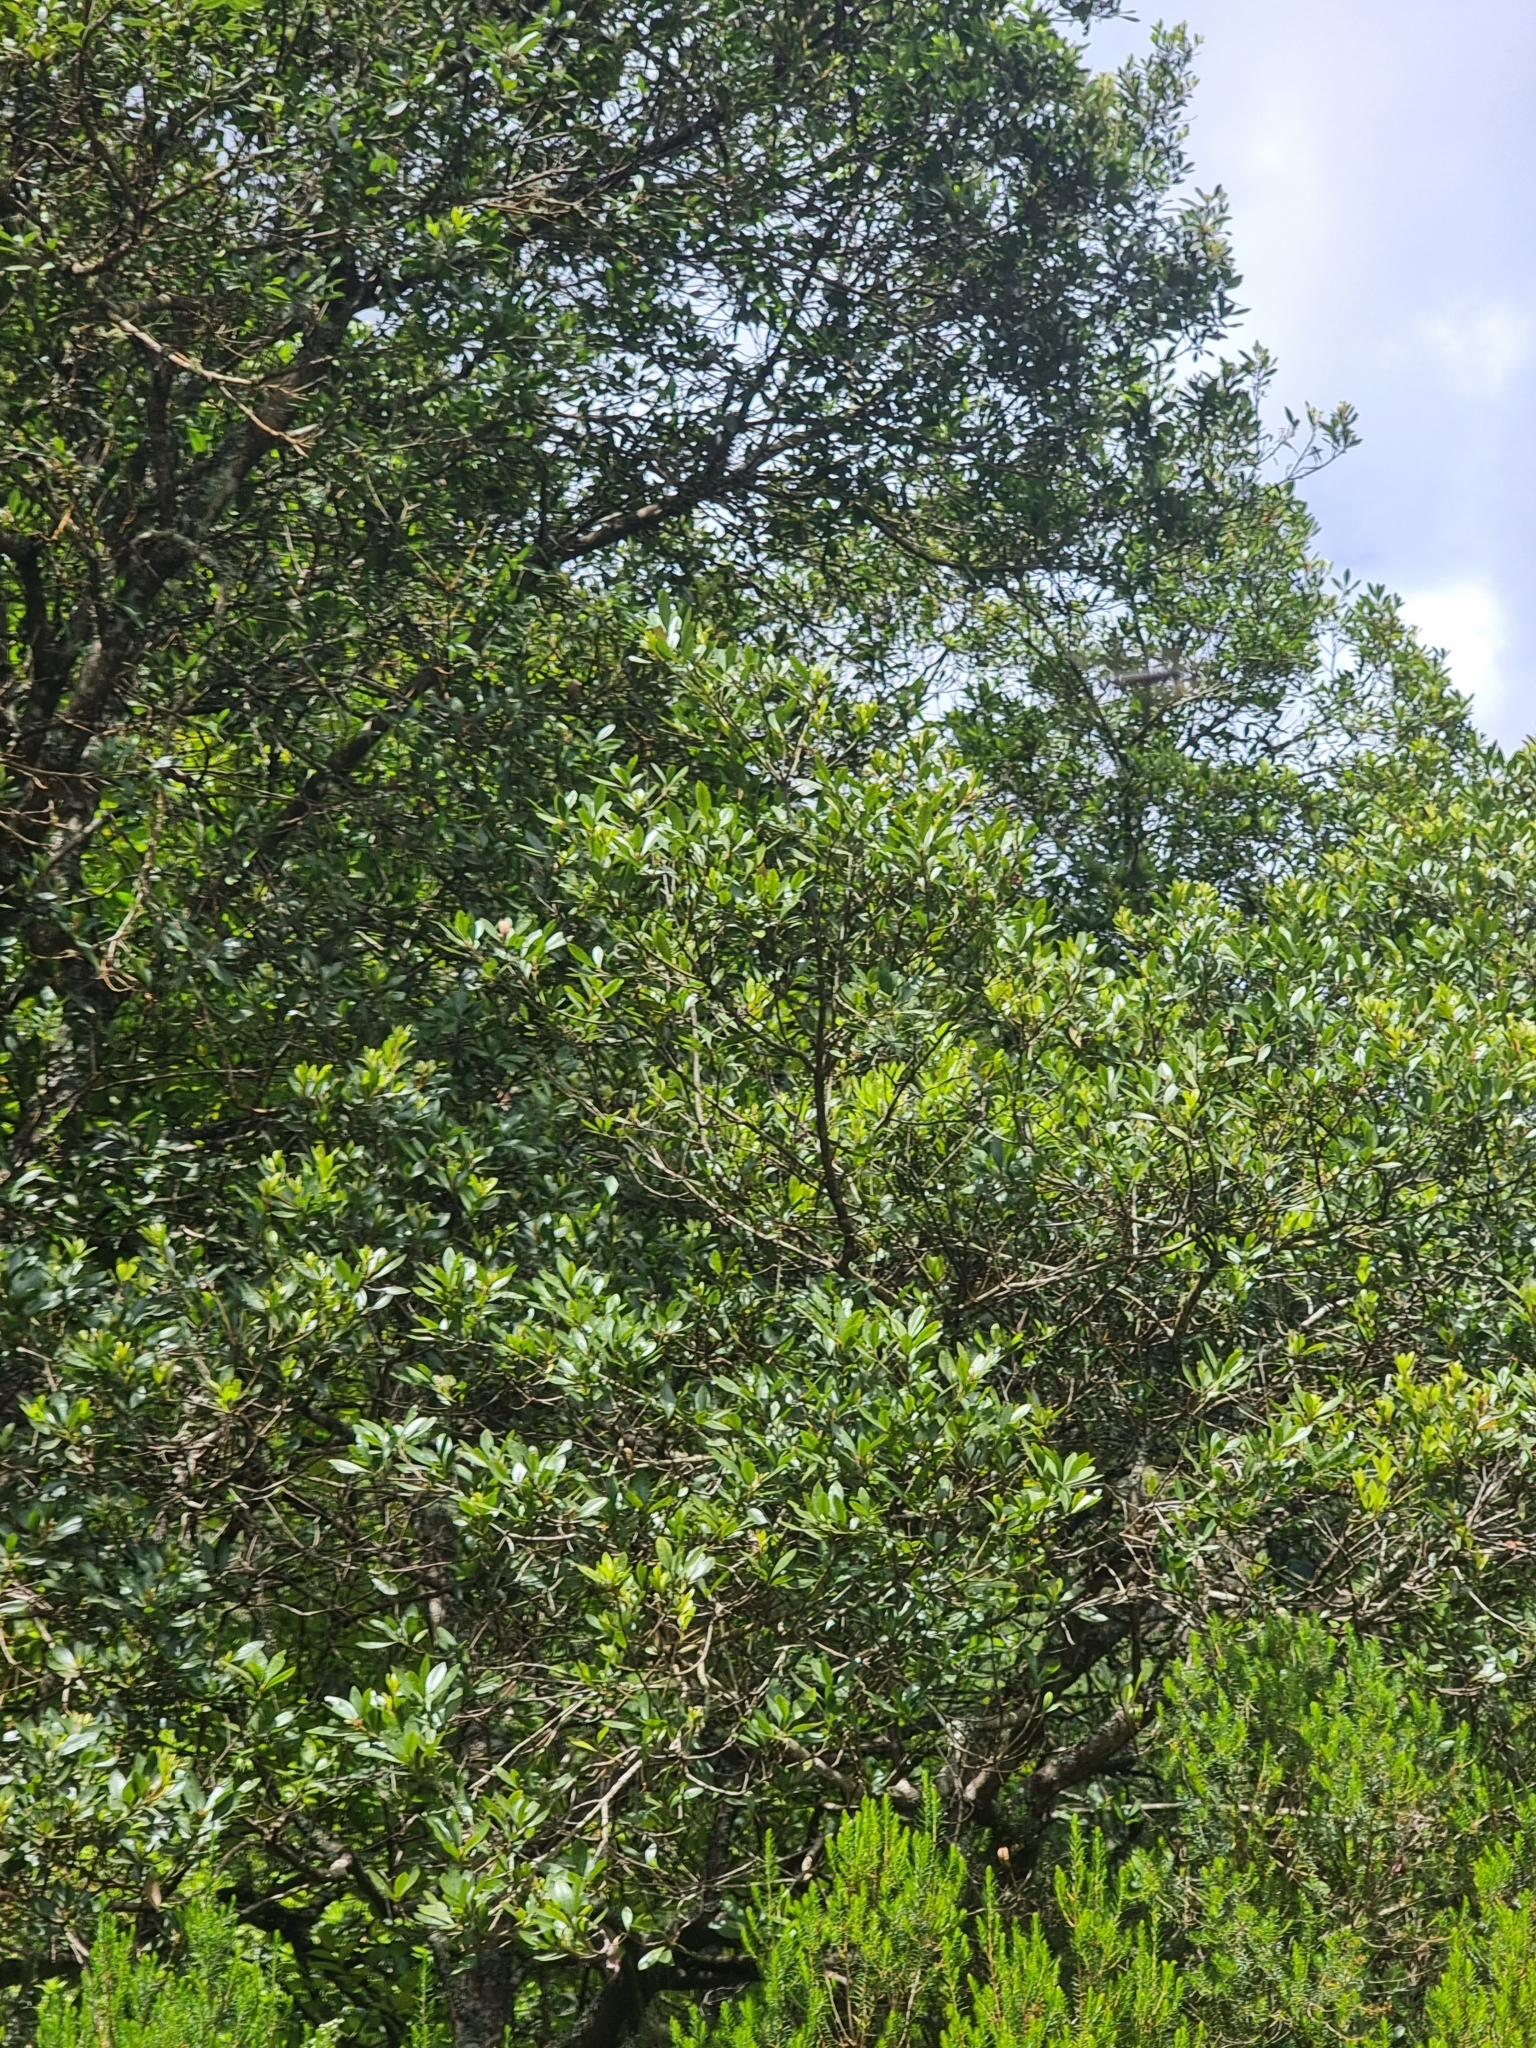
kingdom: Plantae
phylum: Tracheophyta
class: Magnoliopsida
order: Fagales
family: Myricaceae
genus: Morella
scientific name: Morella faya
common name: Firetree
